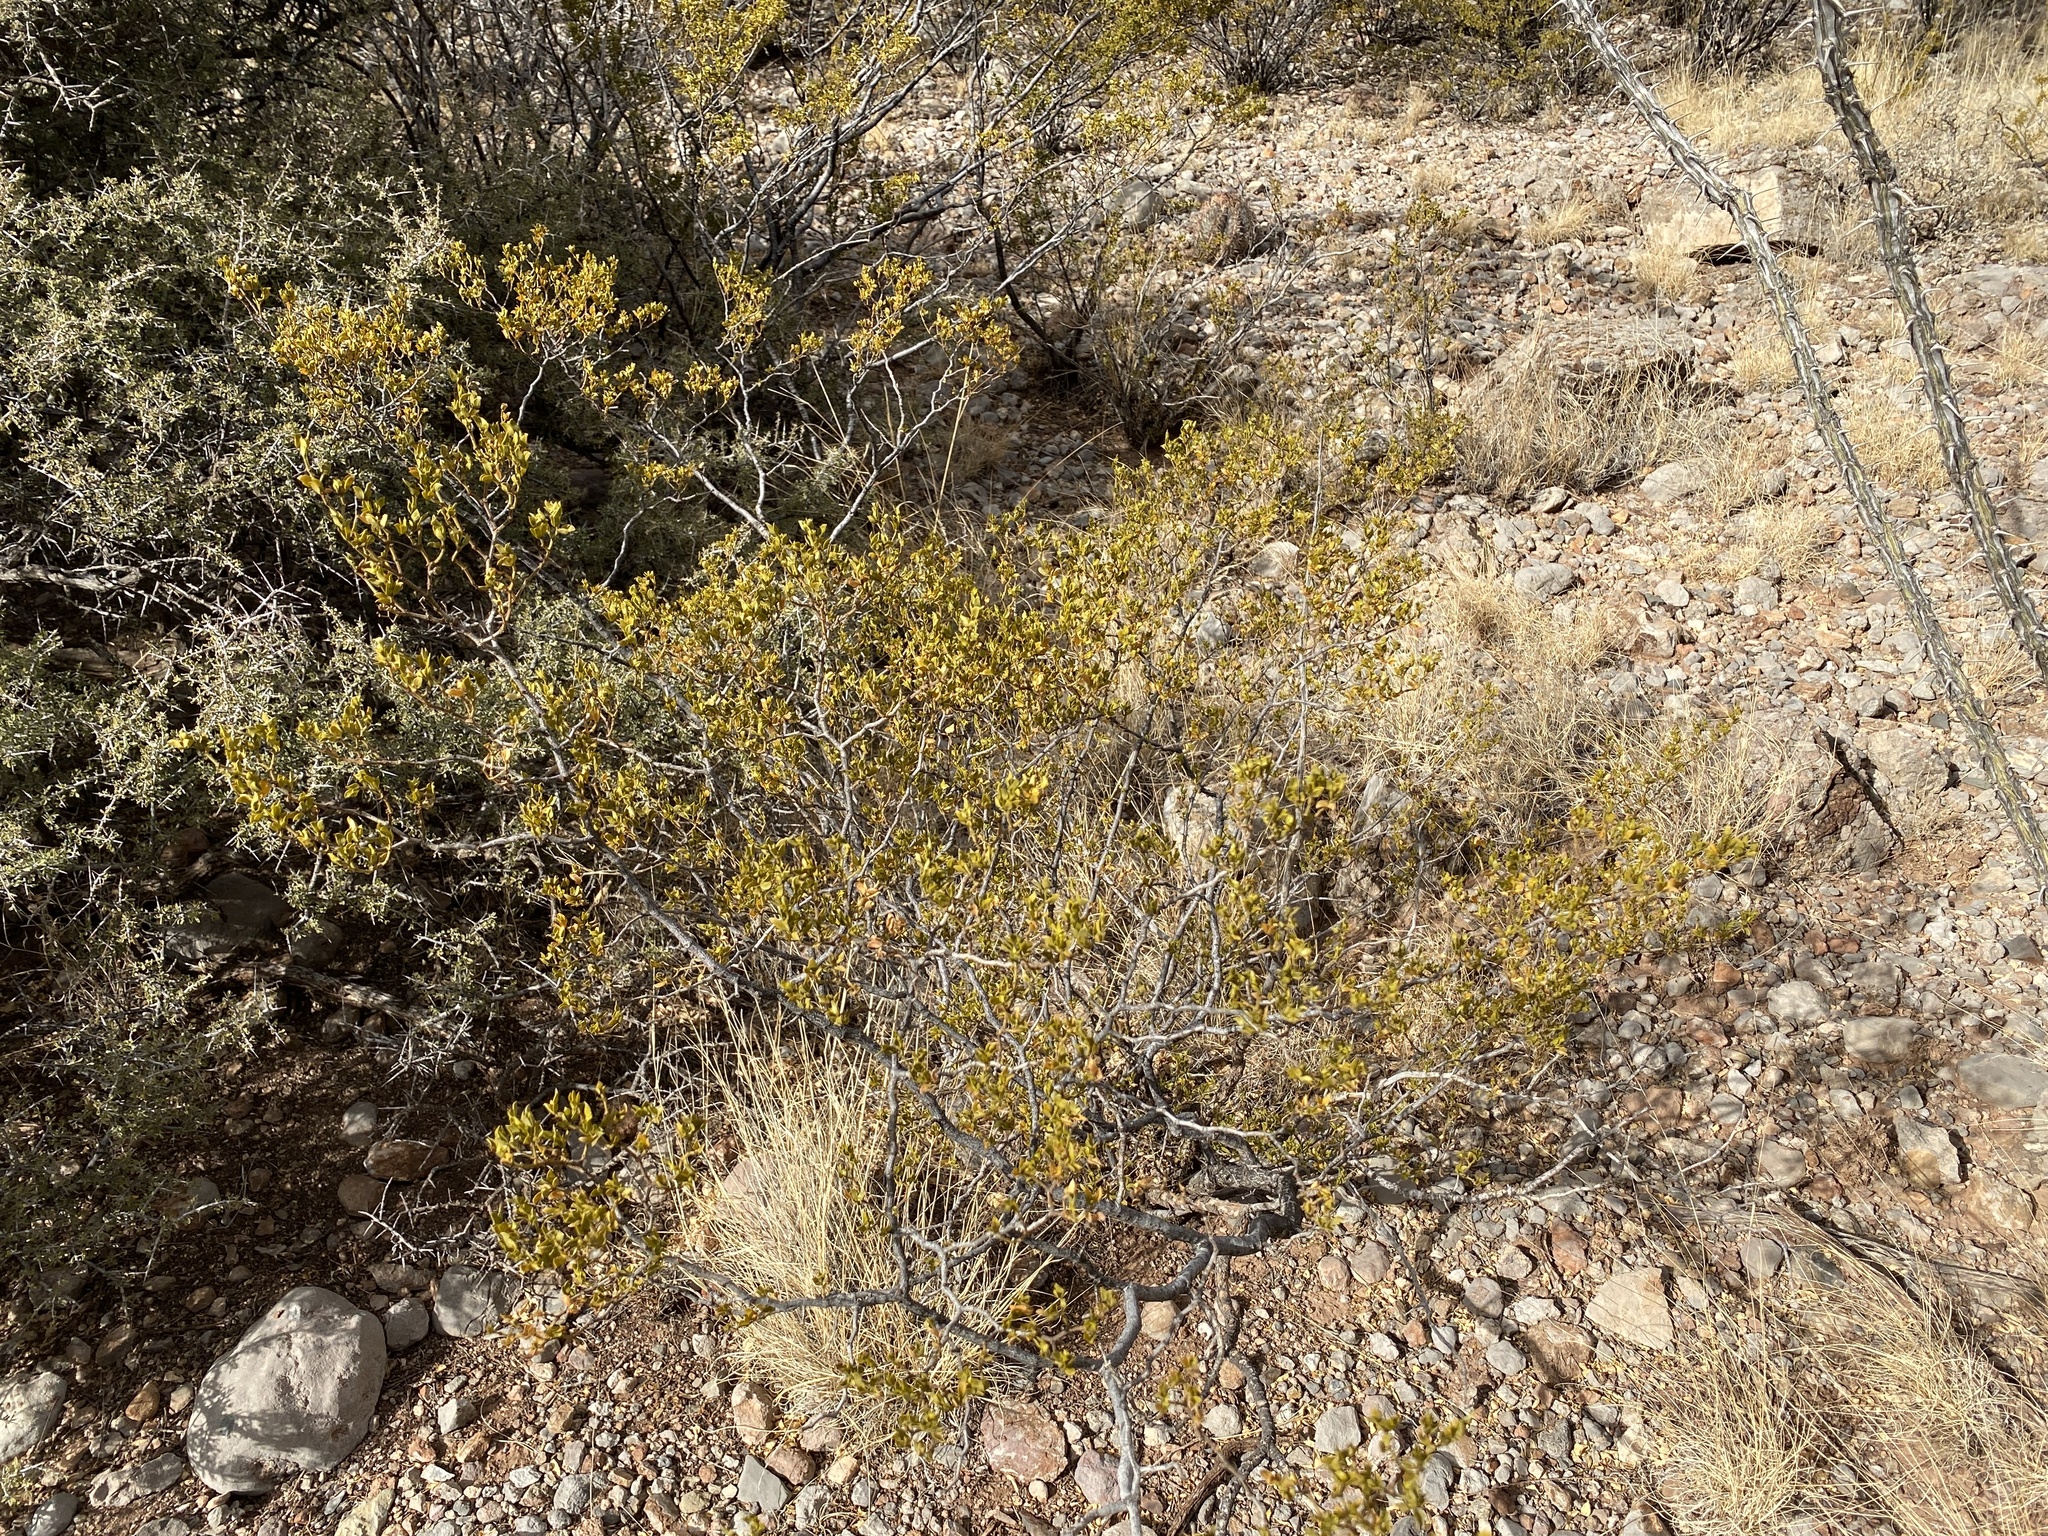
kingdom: Plantae
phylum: Tracheophyta
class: Magnoliopsida
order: Zygophyllales
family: Zygophyllaceae
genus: Larrea
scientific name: Larrea tridentata
